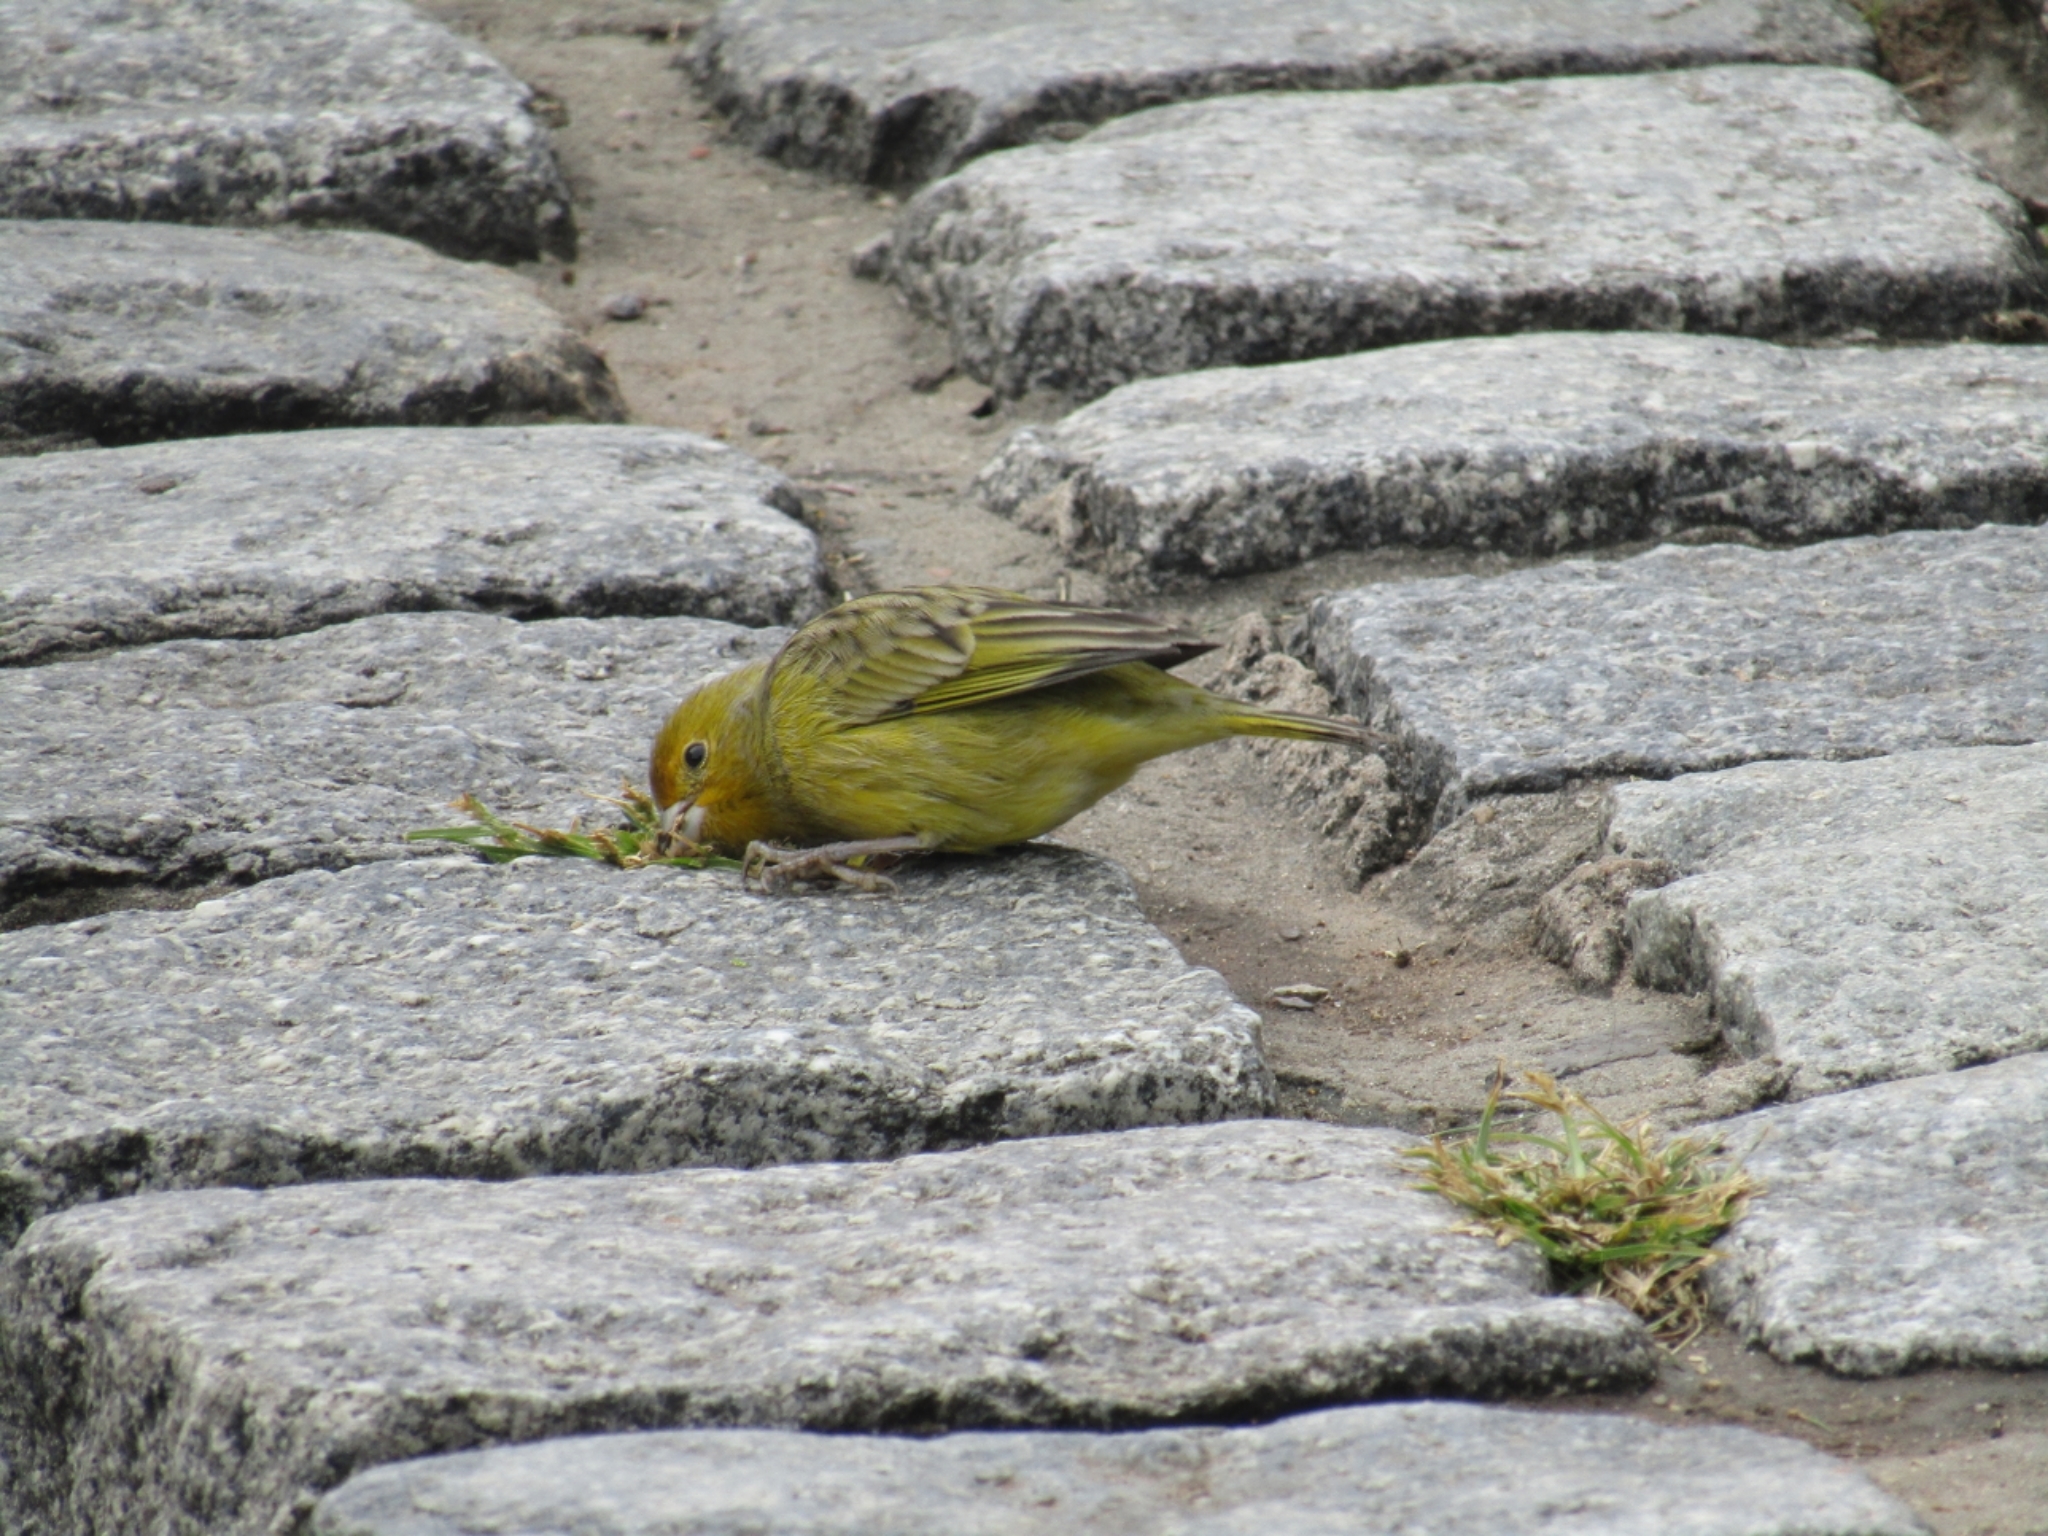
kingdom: Animalia
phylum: Chordata
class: Aves
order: Passeriformes
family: Thraupidae
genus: Sicalis
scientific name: Sicalis flaveola
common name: Saffron finch
